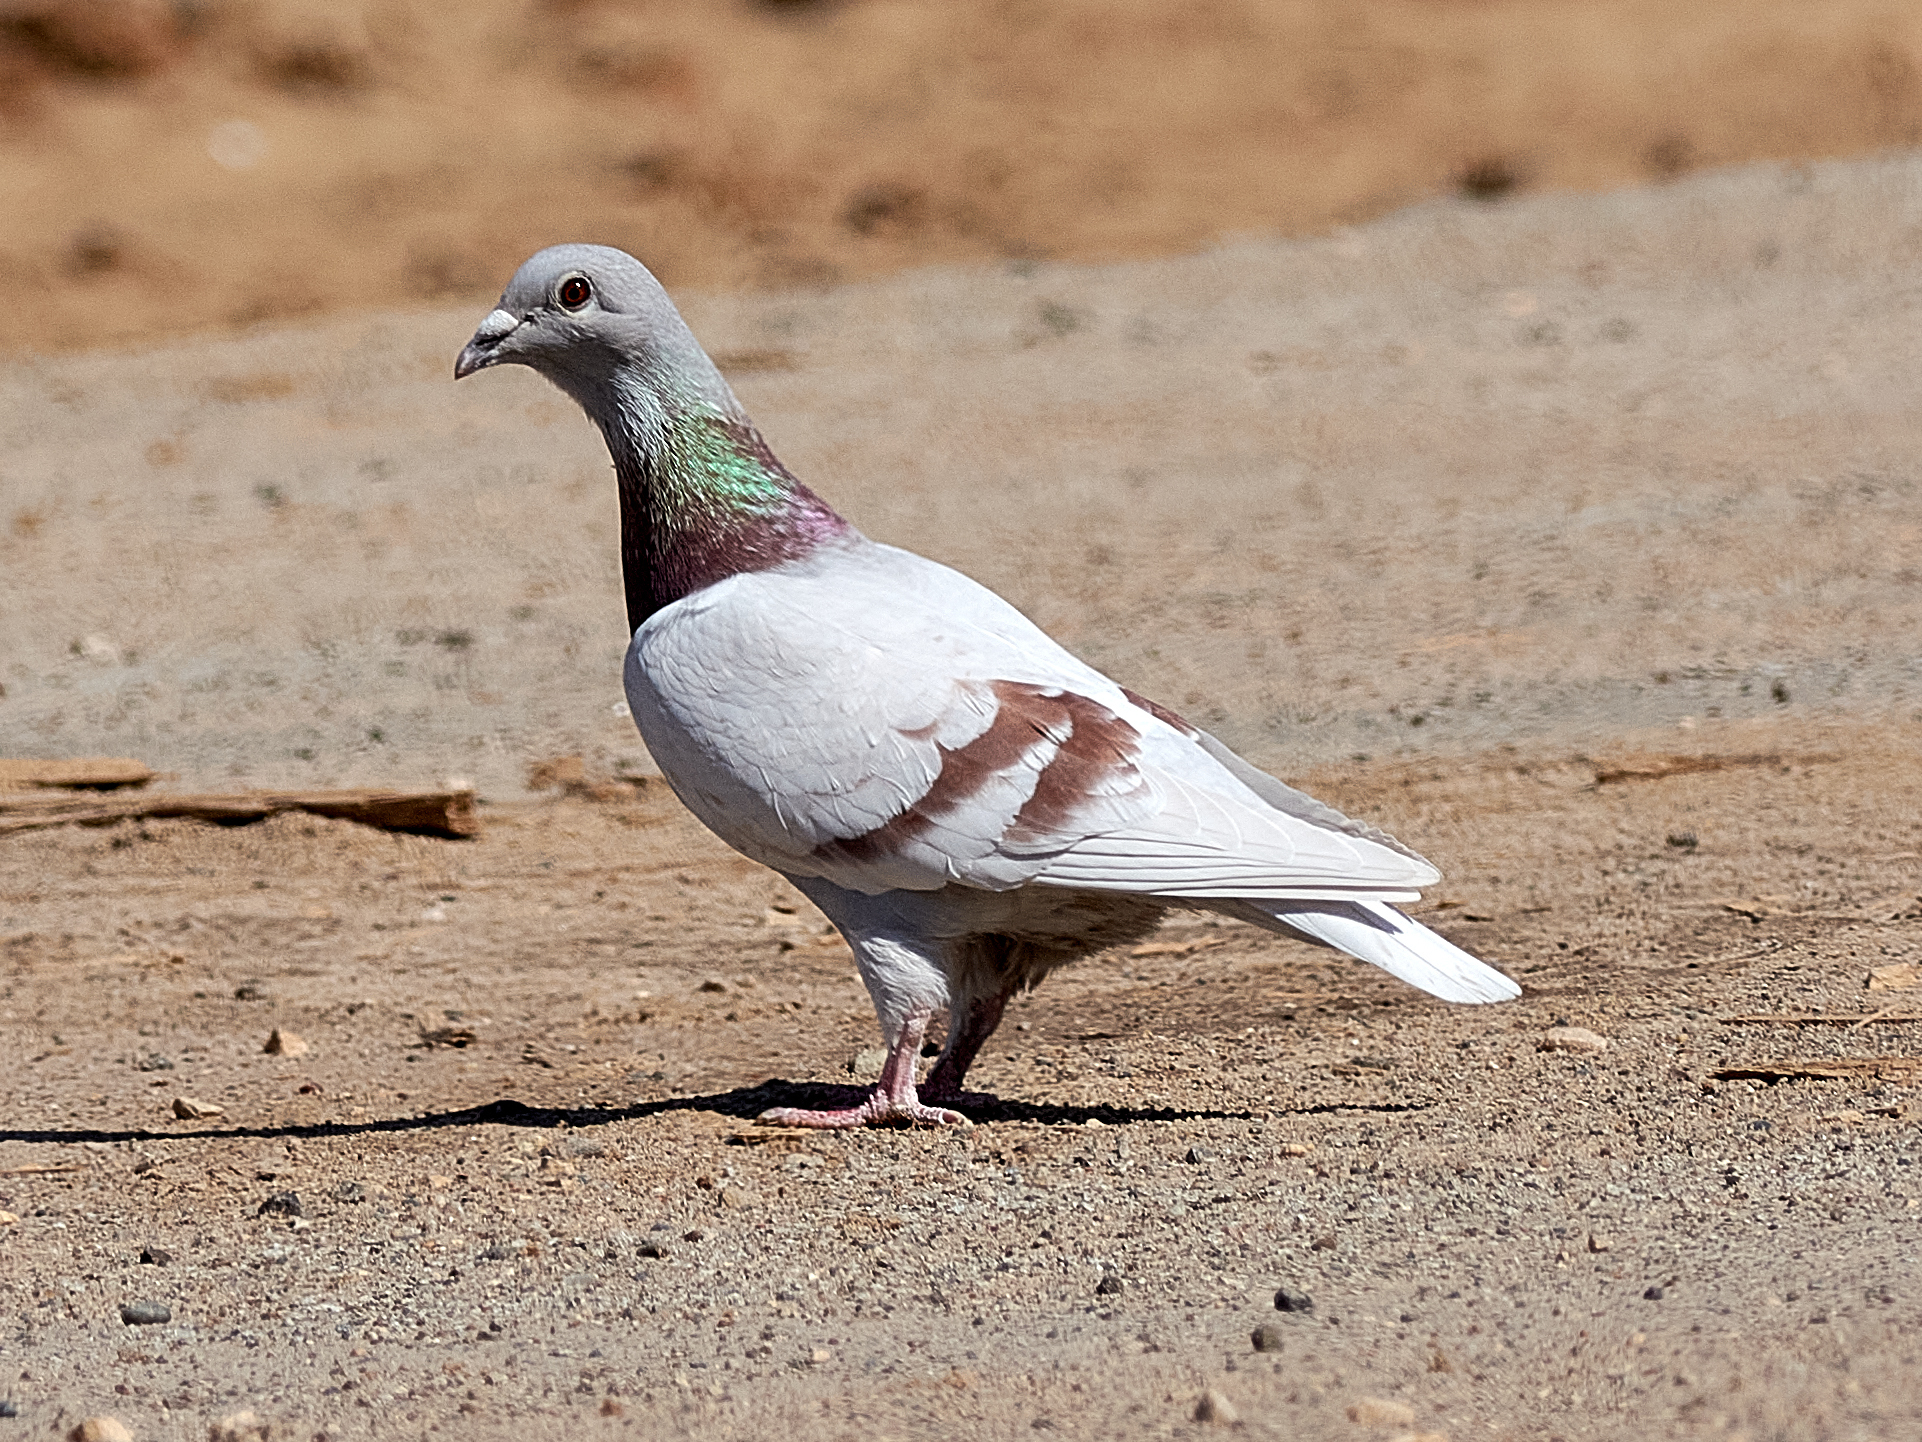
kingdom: Animalia
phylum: Chordata
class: Aves
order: Columbiformes
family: Columbidae
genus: Columba
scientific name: Columba livia
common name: Rock pigeon
